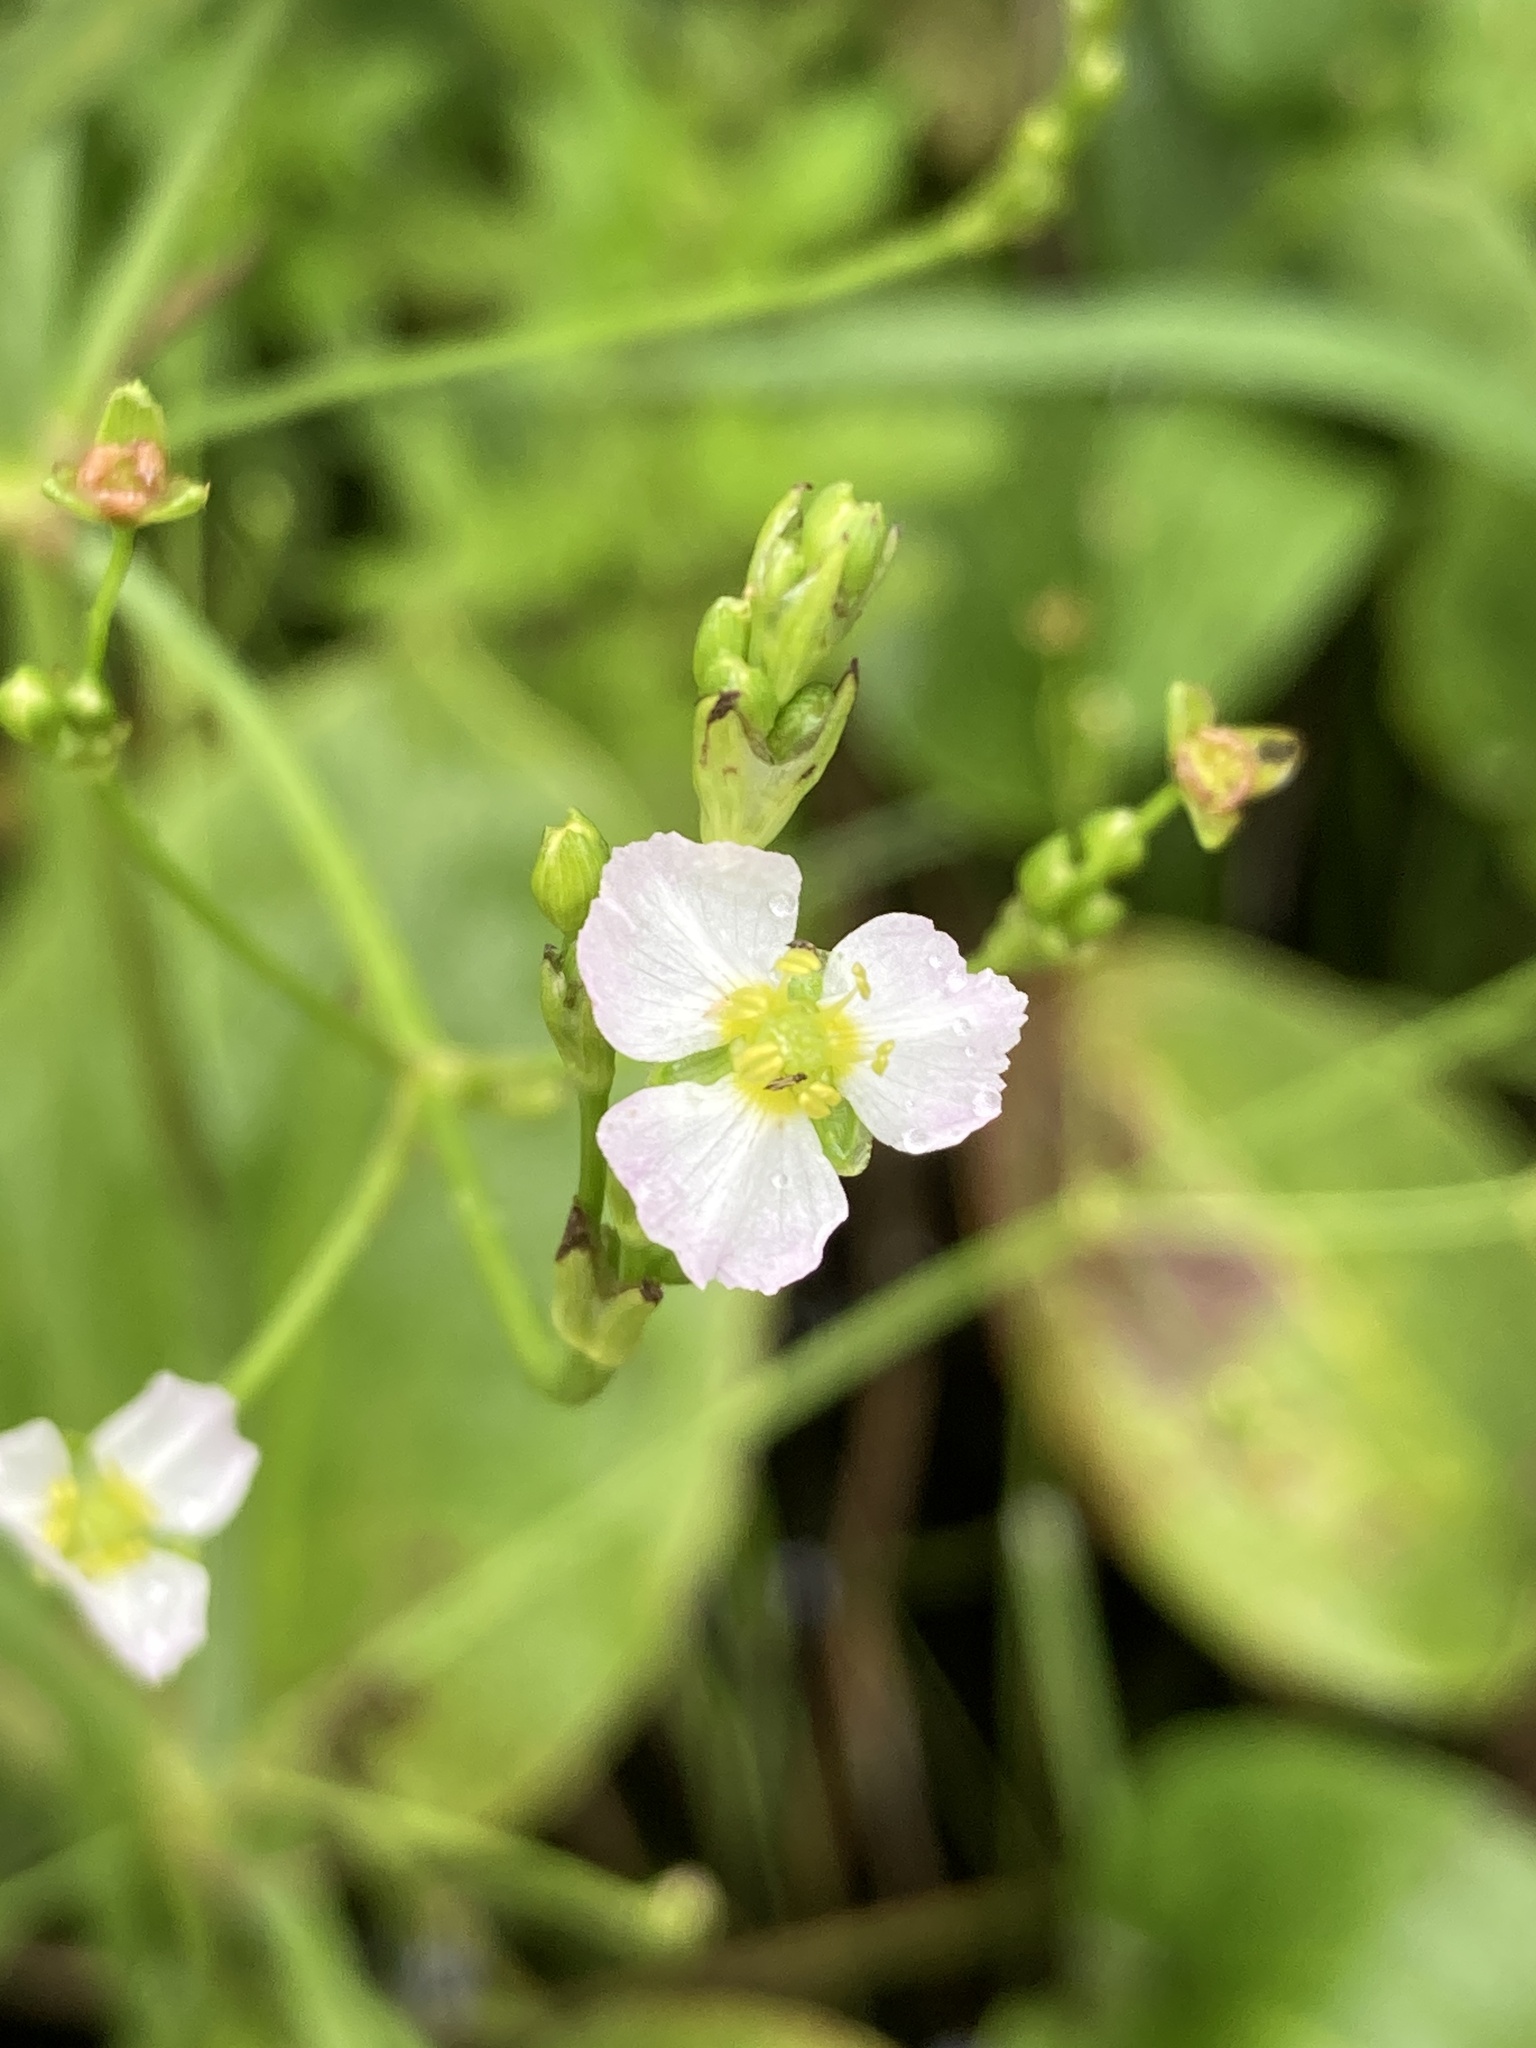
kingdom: Plantae
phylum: Tracheophyta
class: Liliopsida
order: Alismatales
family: Alismataceae
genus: Alisma
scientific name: Alisma plantago-aquatica
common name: Water-plantain
